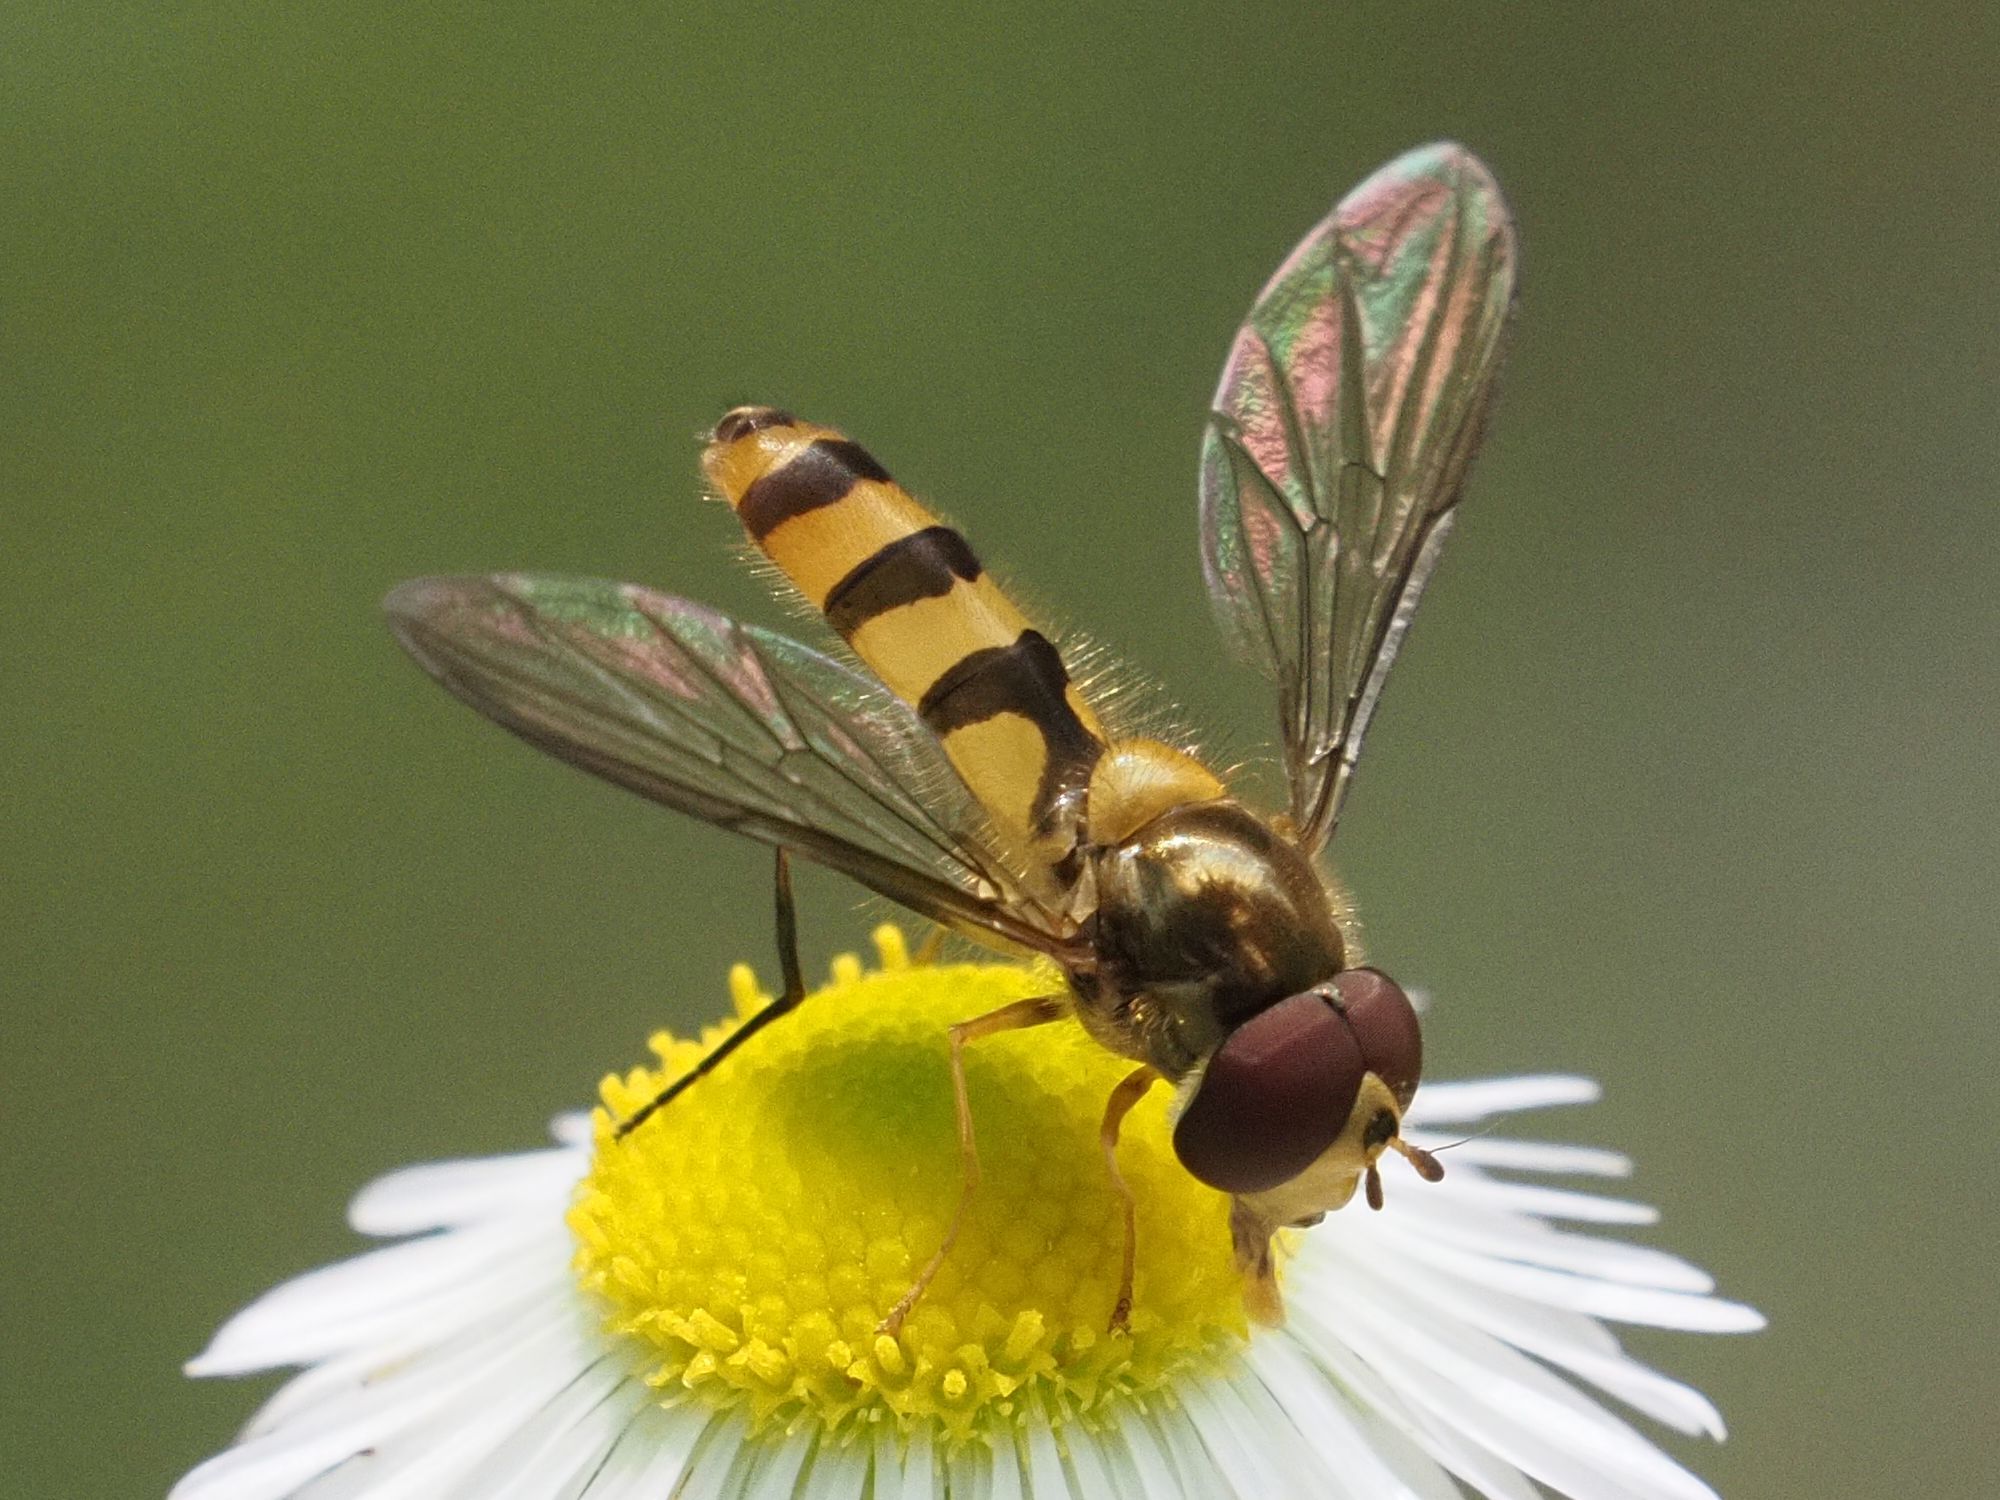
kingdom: Animalia
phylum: Arthropoda
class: Insecta
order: Diptera
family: Syrphidae
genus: Meliscaeva
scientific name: Meliscaeva cinctella
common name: American thintail fly
